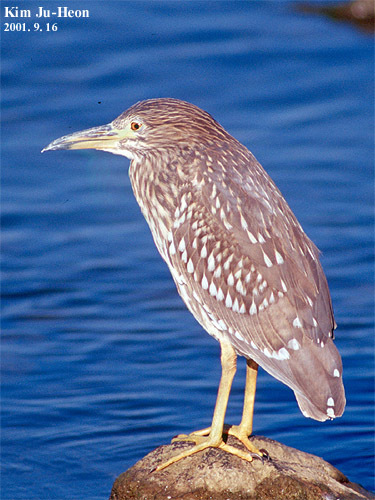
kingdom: Animalia
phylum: Chordata
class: Aves
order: Pelecaniformes
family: Ardeidae
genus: Nycticorax
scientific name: Nycticorax nycticorax
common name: Black-crowned night heron
